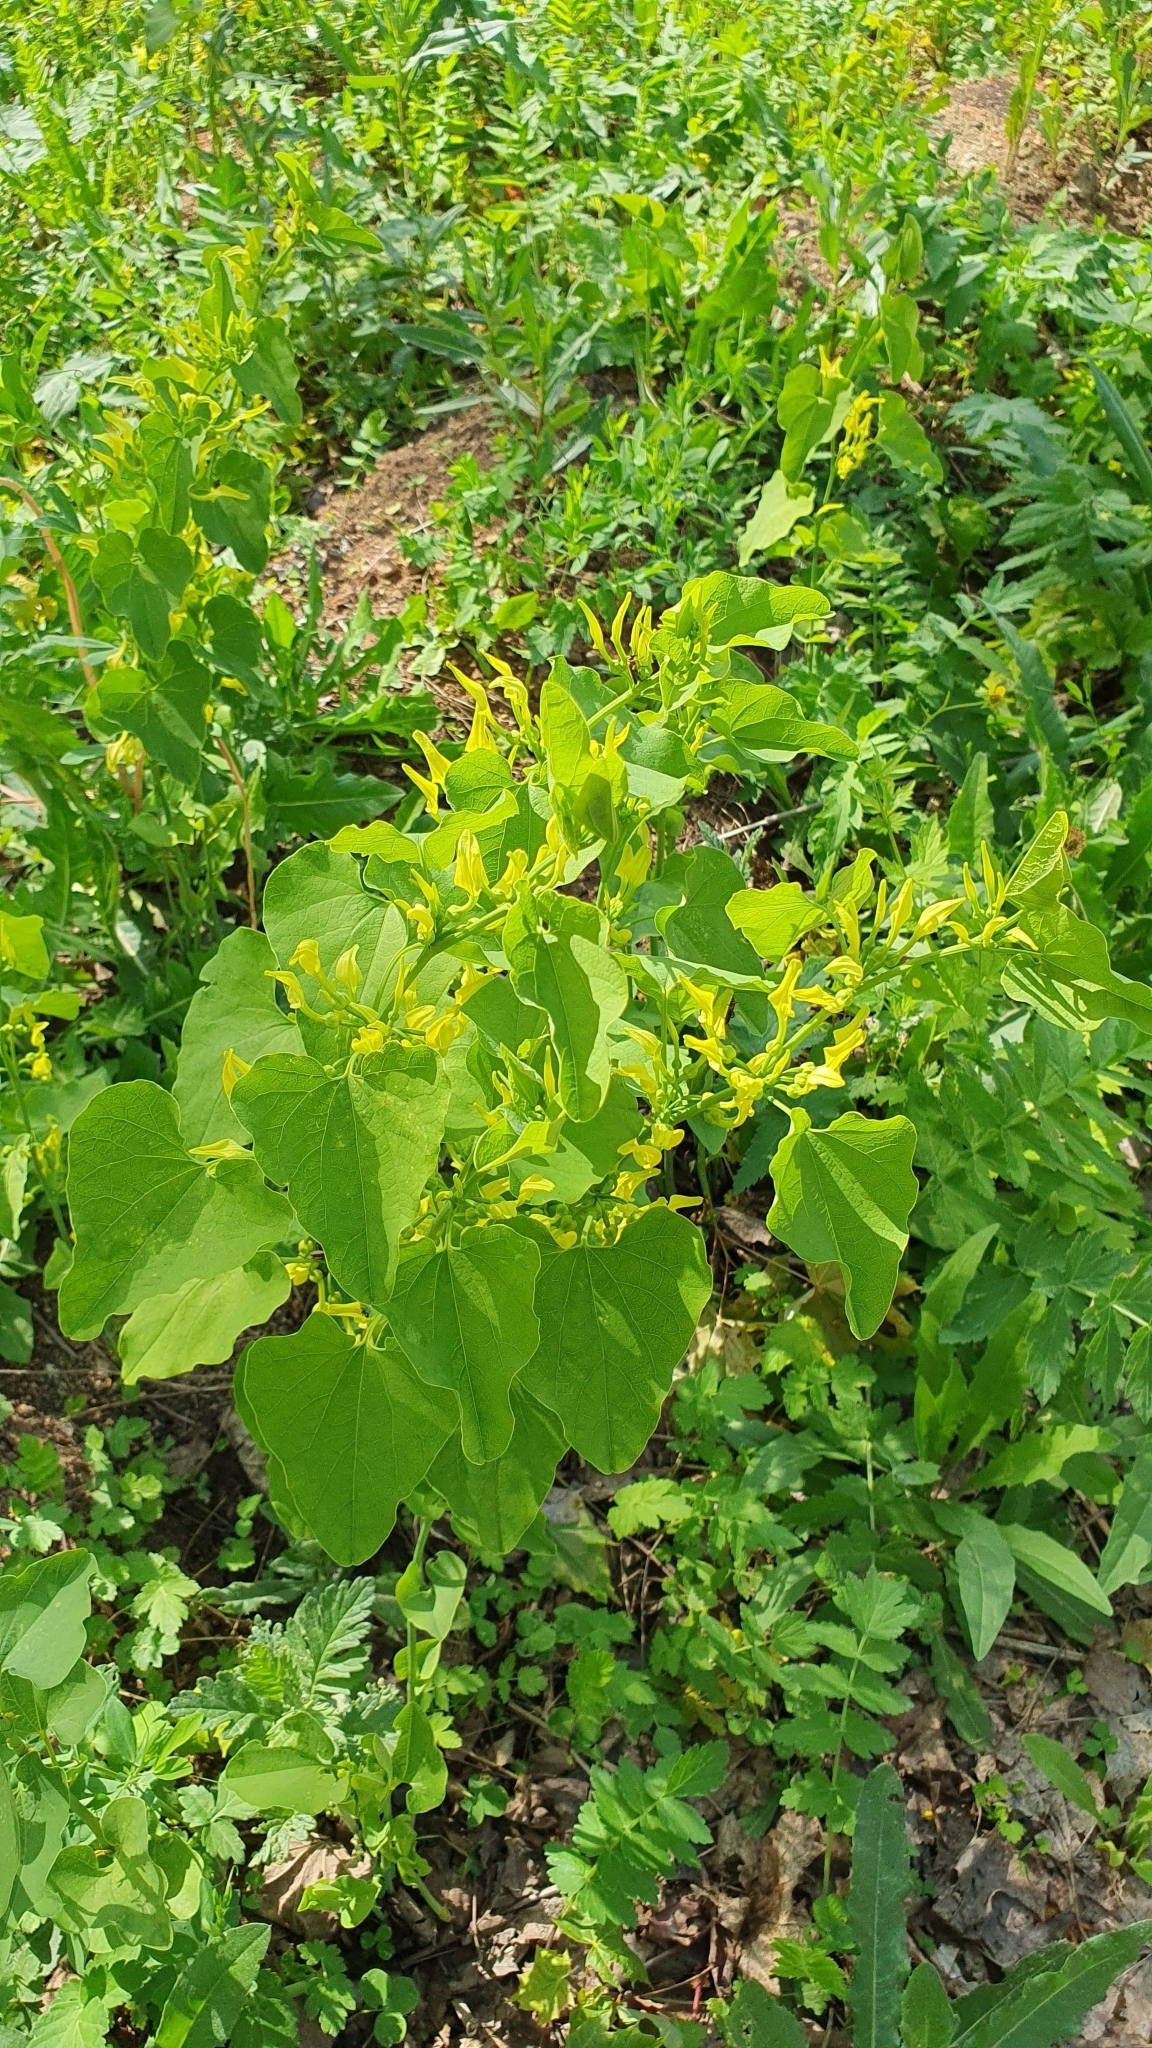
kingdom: Plantae
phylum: Tracheophyta
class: Magnoliopsida
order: Piperales
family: Aristolochiaceae
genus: Aristolochia
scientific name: Aristolochia clematitis
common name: Birthwort
